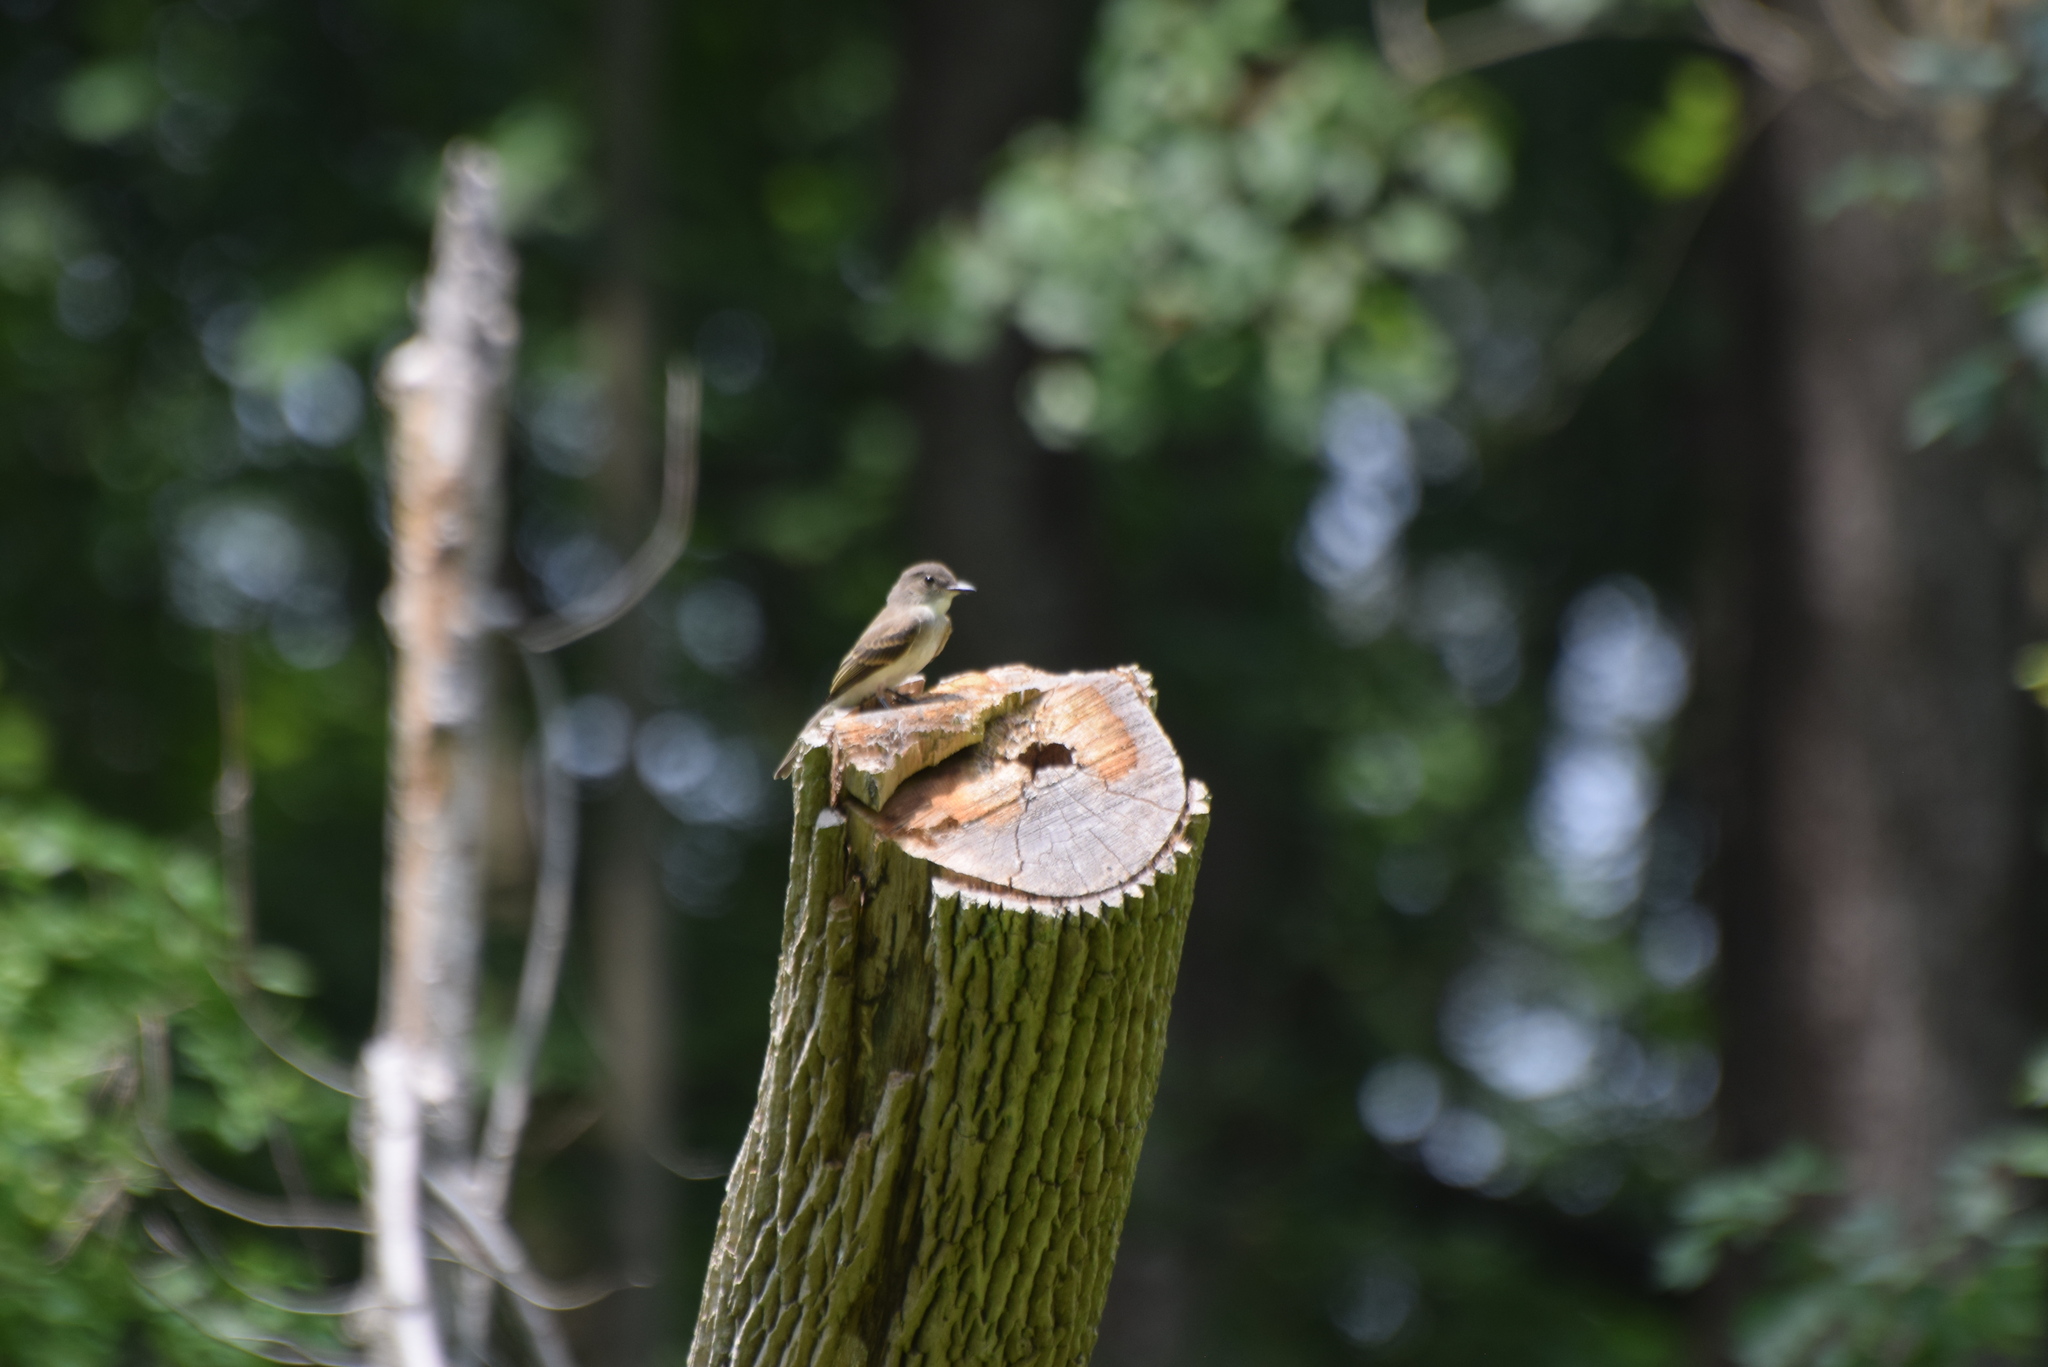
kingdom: Animalia
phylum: Chordata
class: Aves
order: Passeriformes
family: Tyrannidae
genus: Contopus
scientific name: Contopus virens
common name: Eastern wood-pewee
